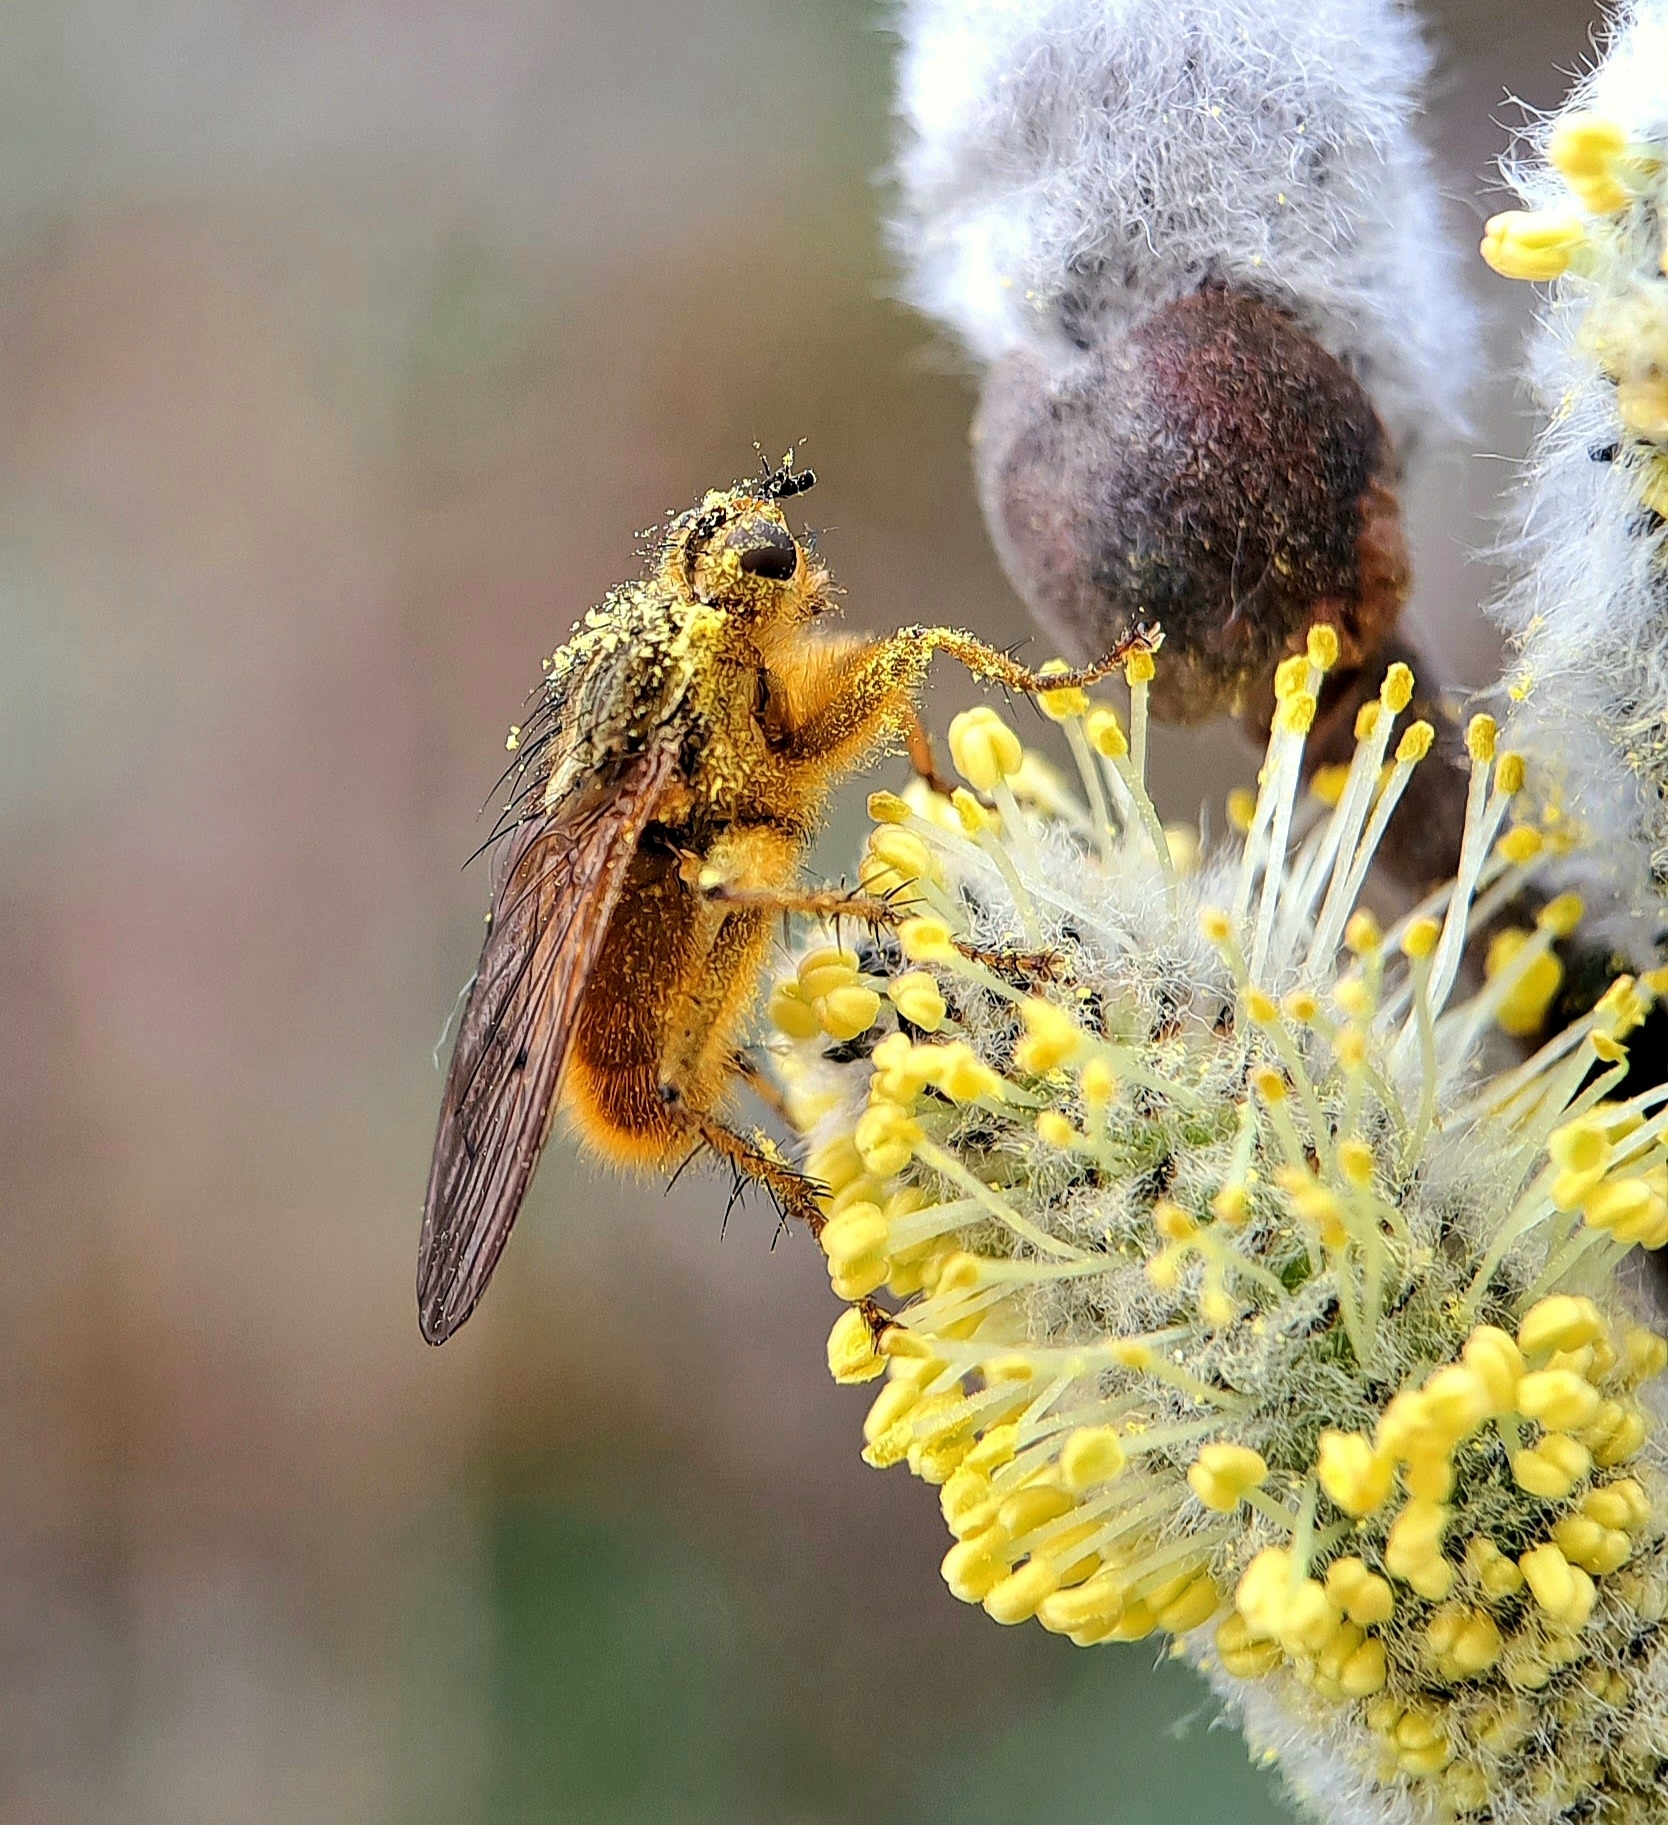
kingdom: Animalia
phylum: Arthropoda
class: Insecta
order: Diptera
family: Scathophagidae
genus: Scathophaga
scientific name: Scathophaga stercoraria
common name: Yellow dung fly
